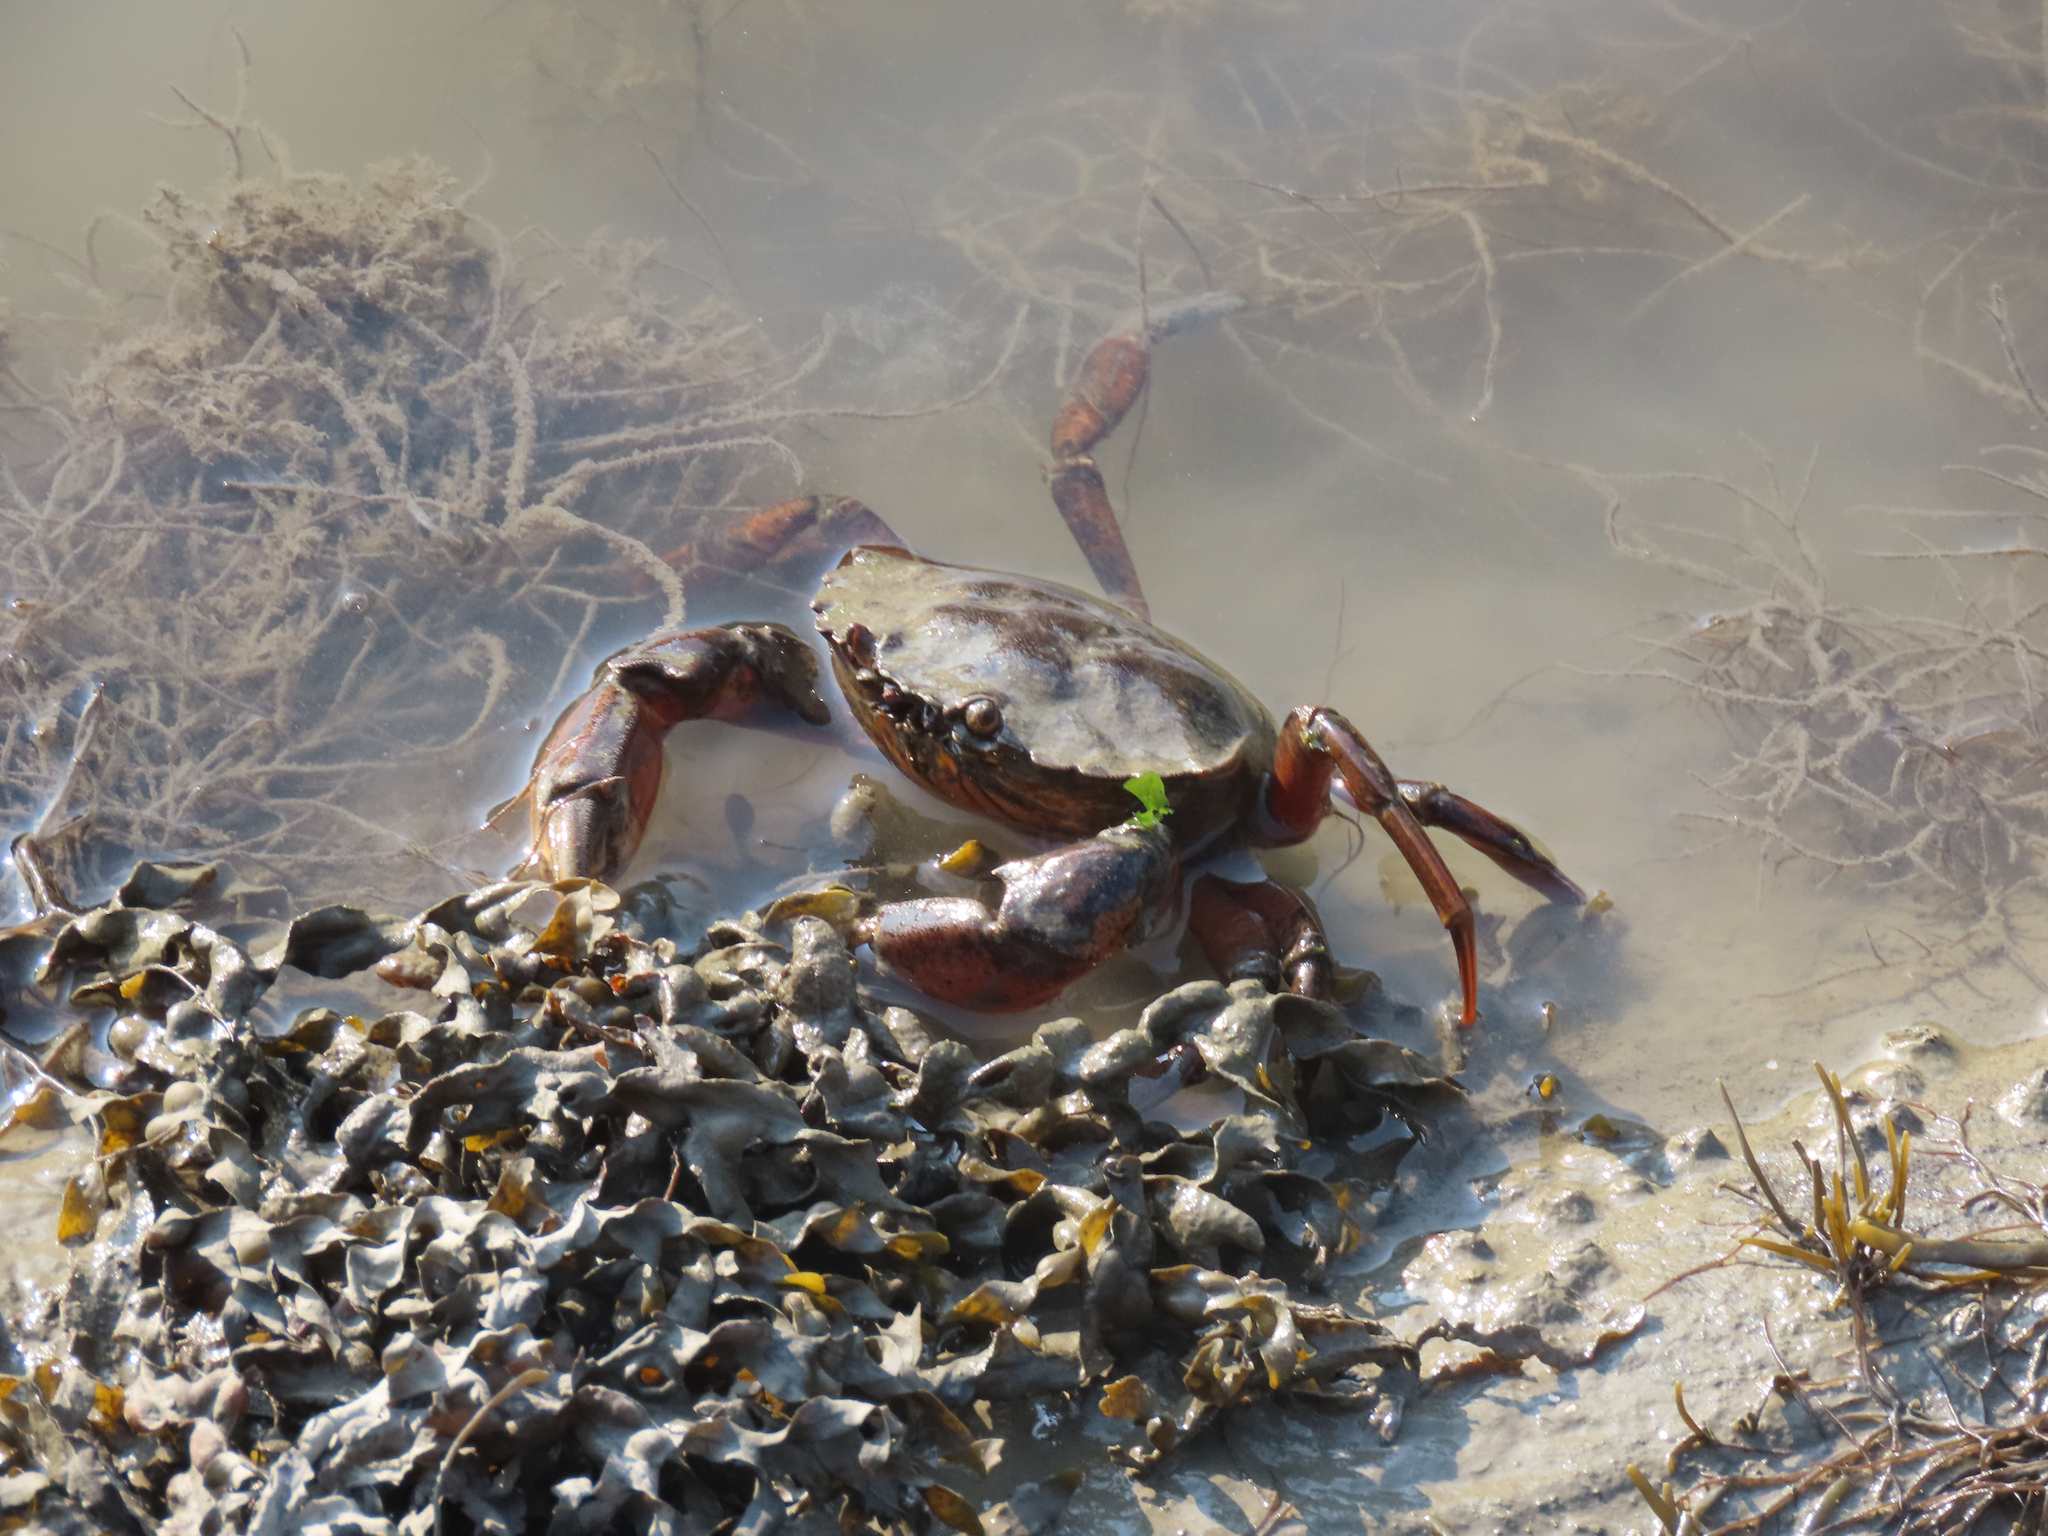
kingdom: Animalia
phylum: Arthropoda
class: Malacostraca
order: Decapoda
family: Carcinidae
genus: Carcinus
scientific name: Carcinus maenas
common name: European green crab
